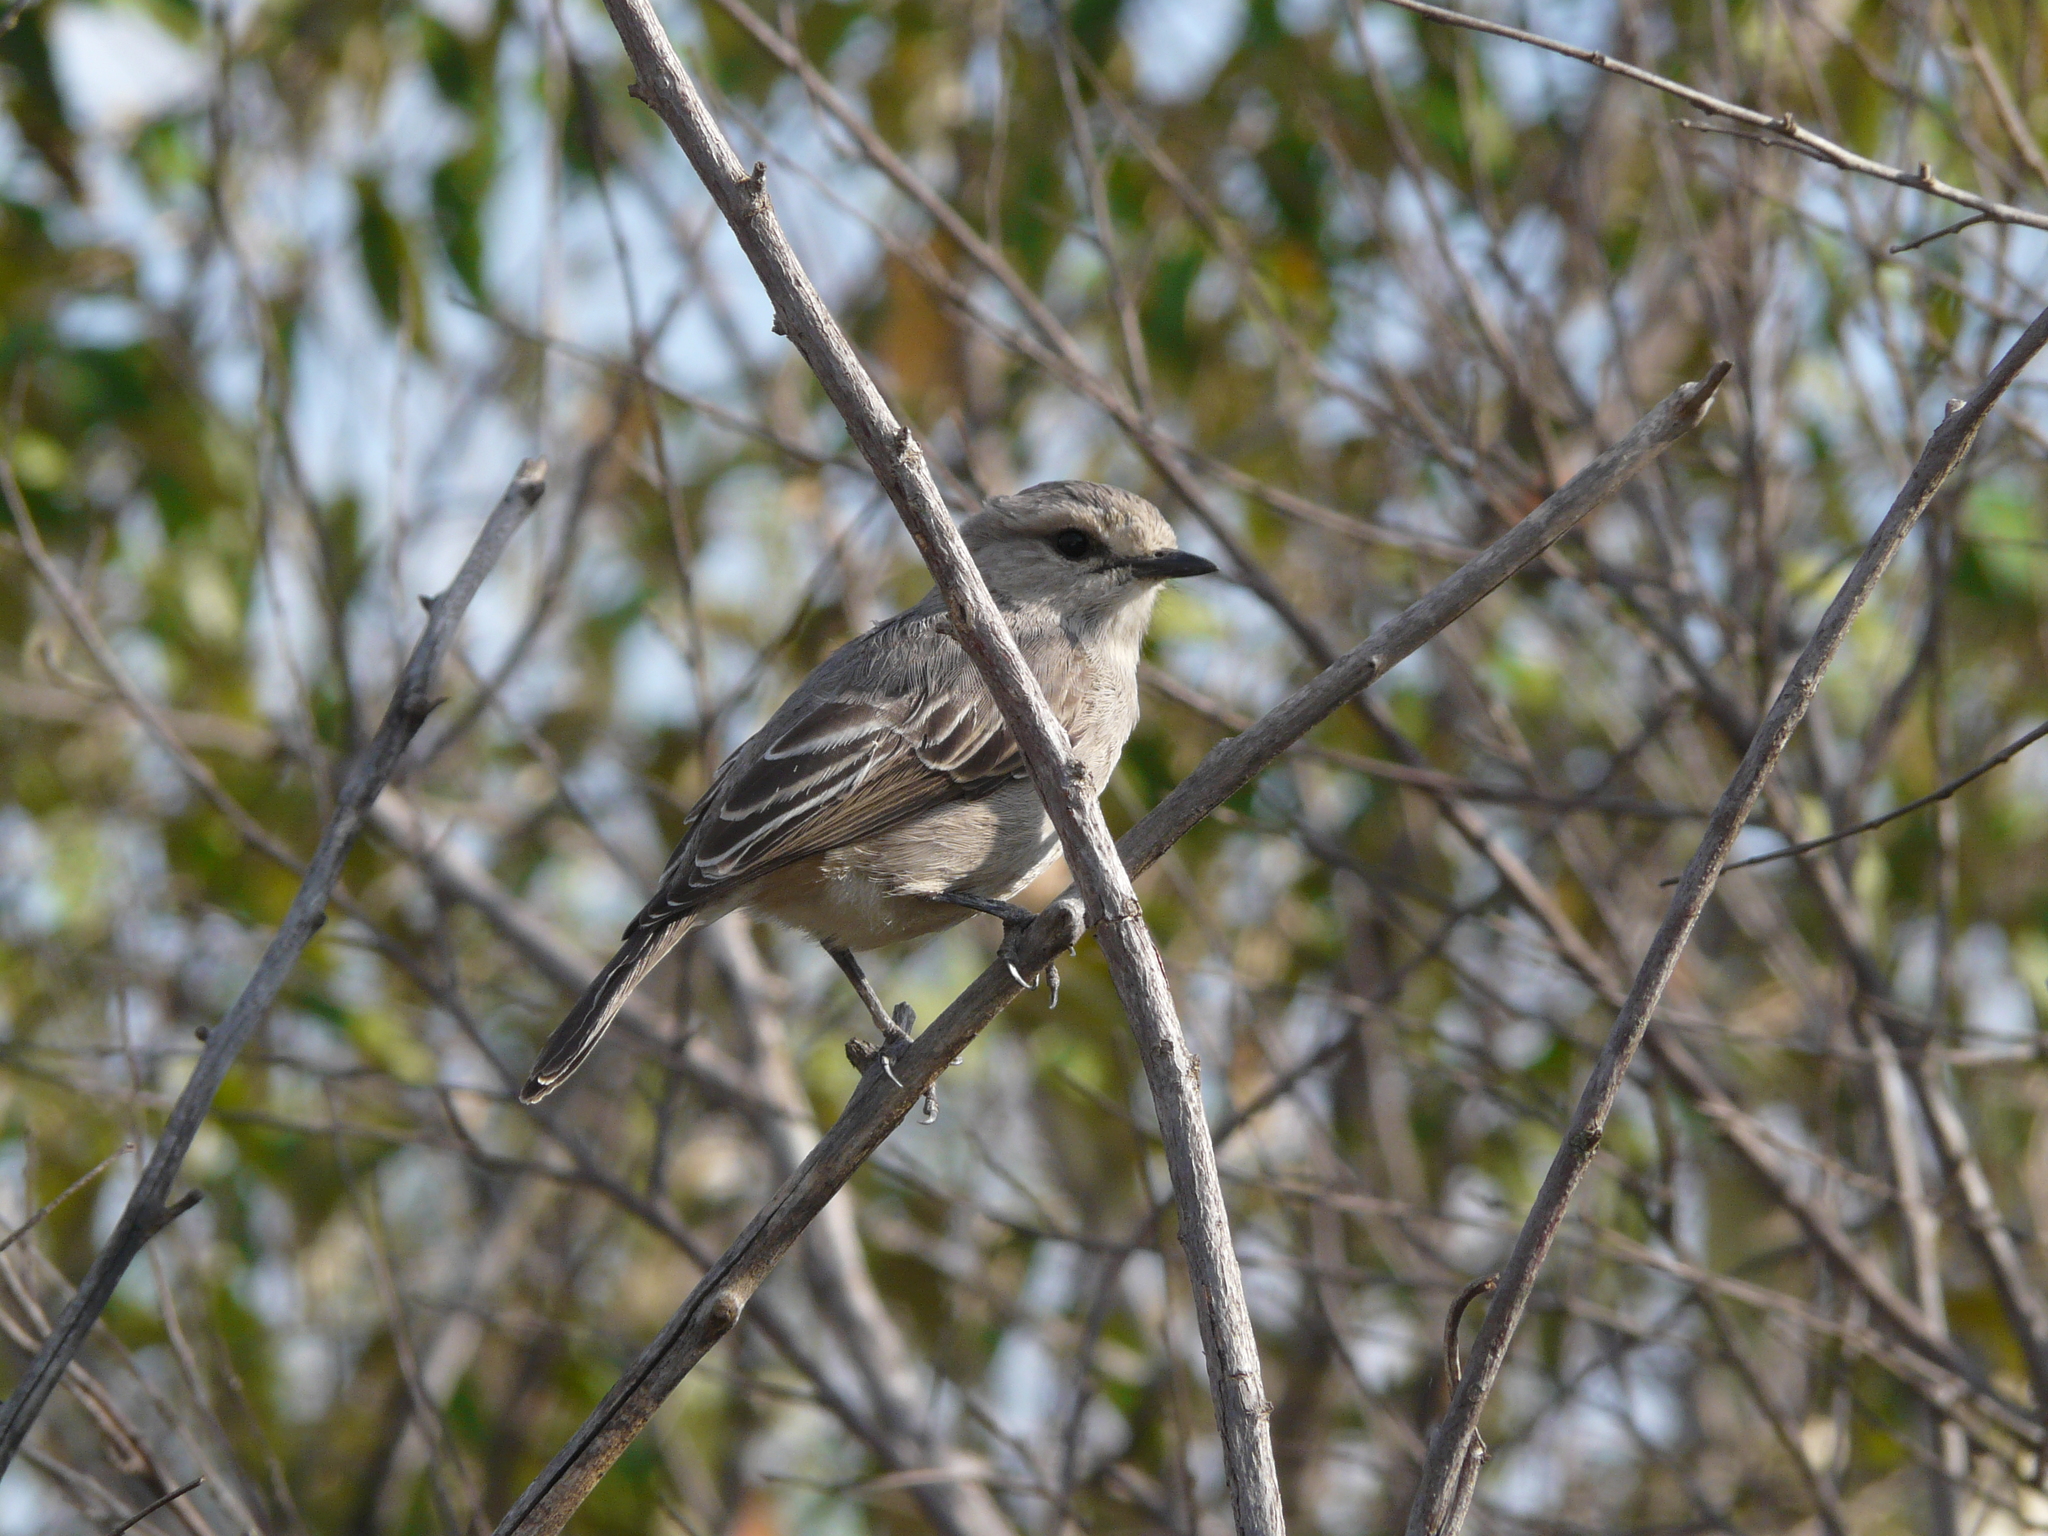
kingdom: Animalia
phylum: Chordata
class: Aves
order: Passeriformes
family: Muscicapidae
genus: Bradornis
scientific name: Bradornis microrhynchus
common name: African grey flycatcher
